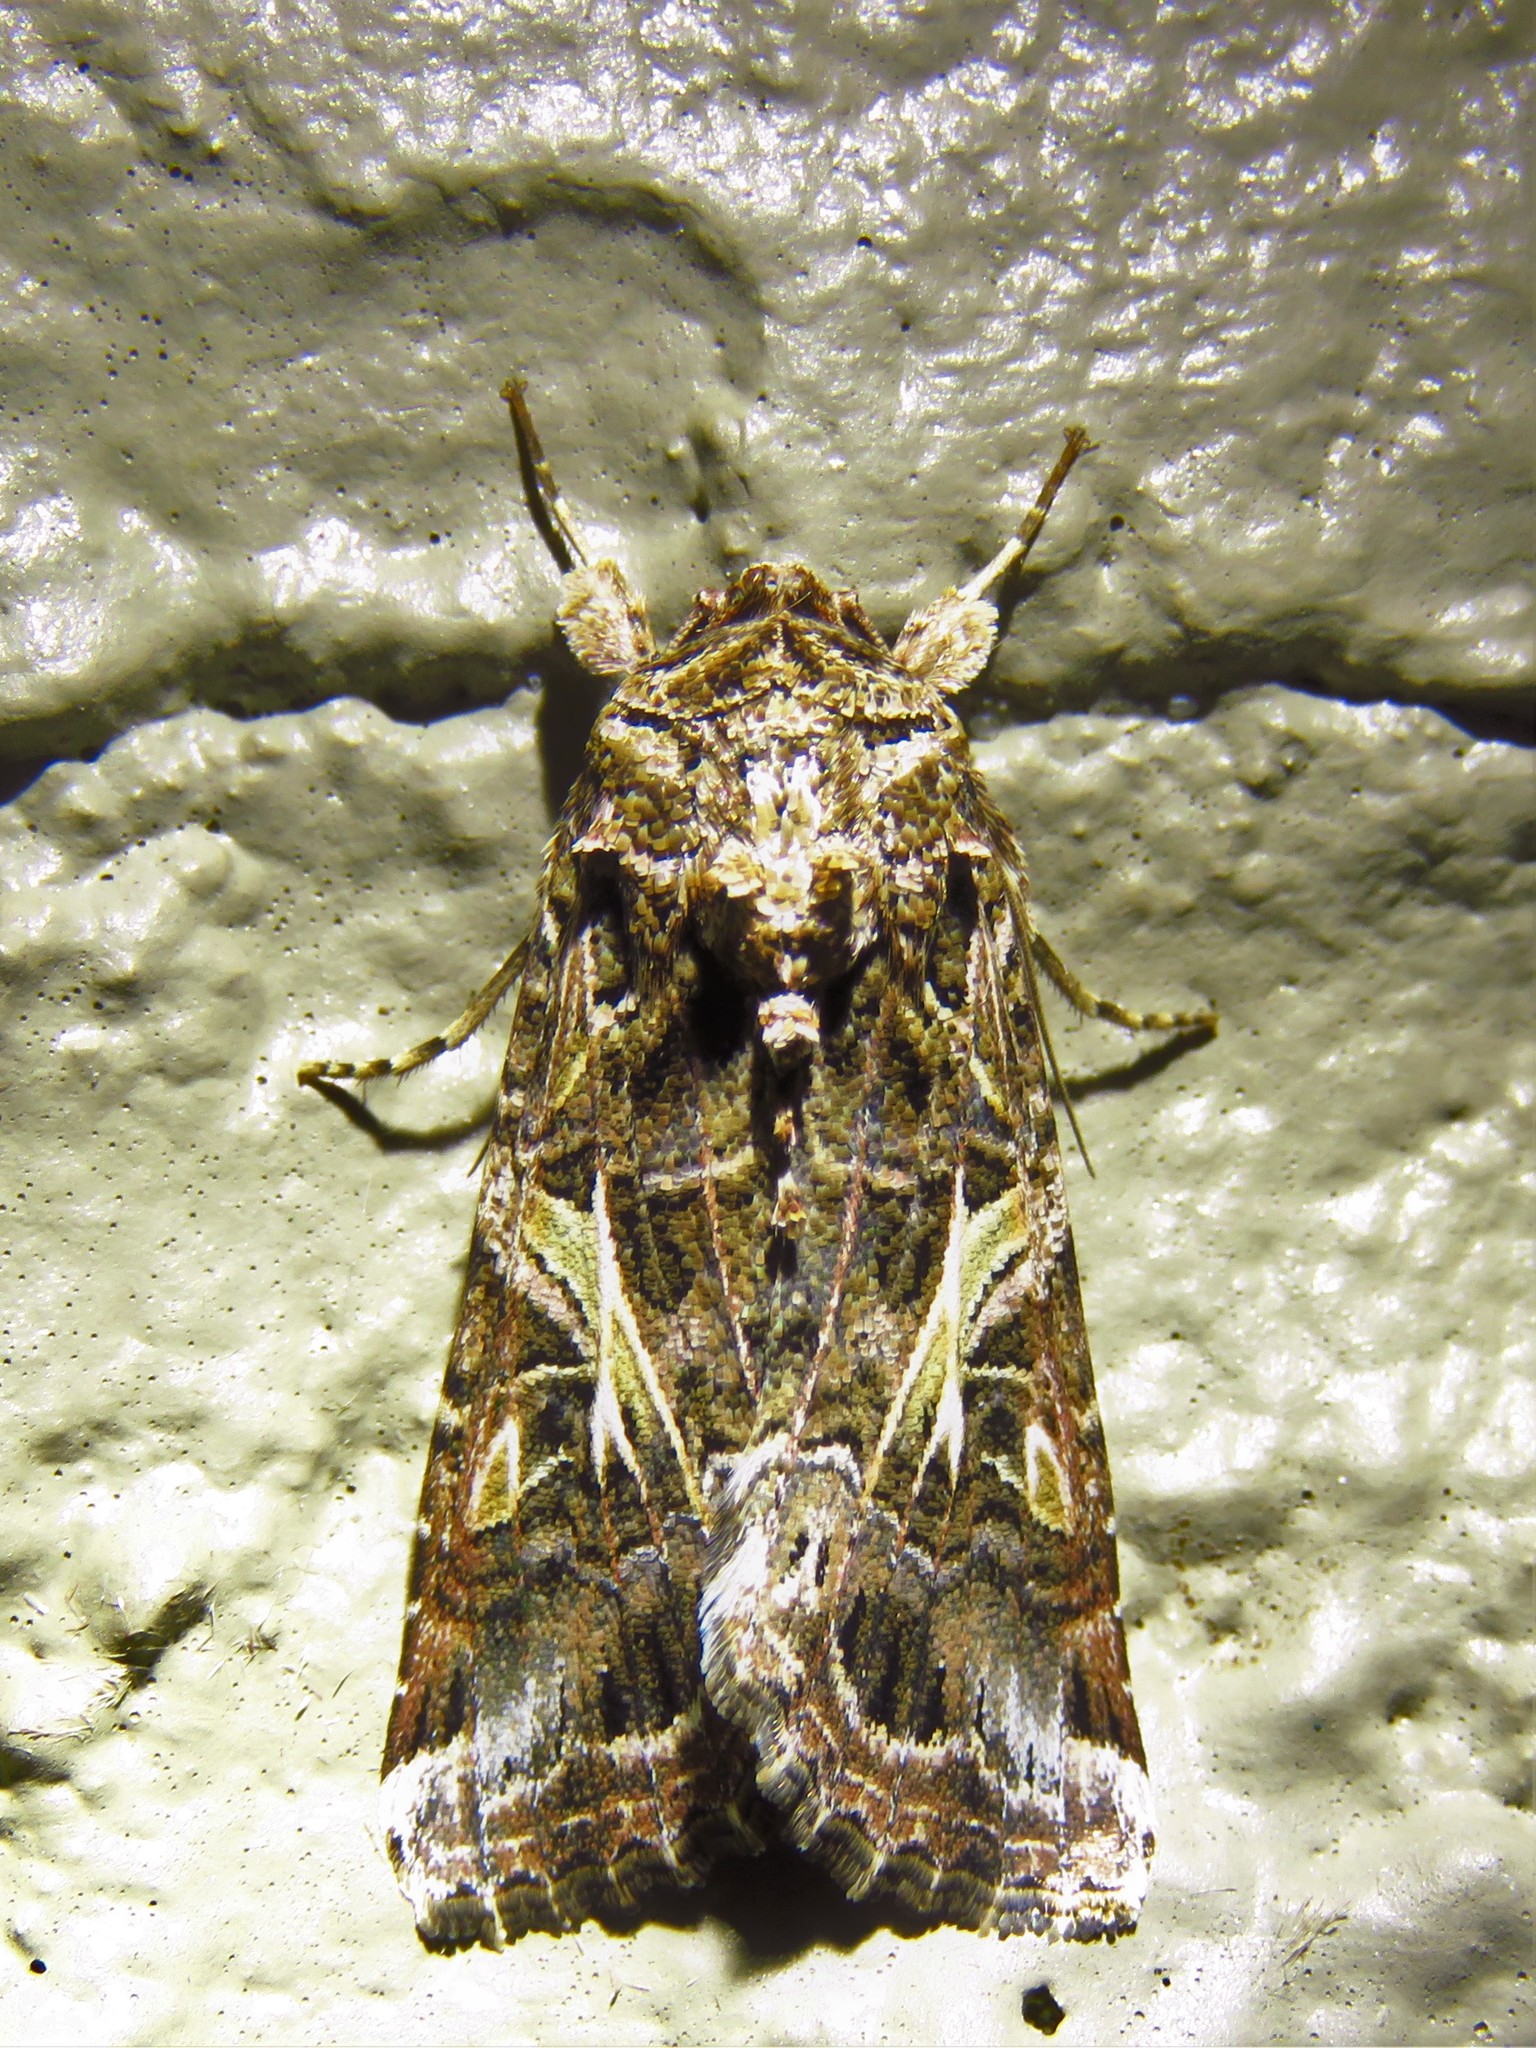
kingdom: Animalia
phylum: Arthropoda
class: Insecta
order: Lepidoptera
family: Noctuidae
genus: Spodoptera
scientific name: Spodoptera ornithogalli
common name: Yellow-striped armyworm
